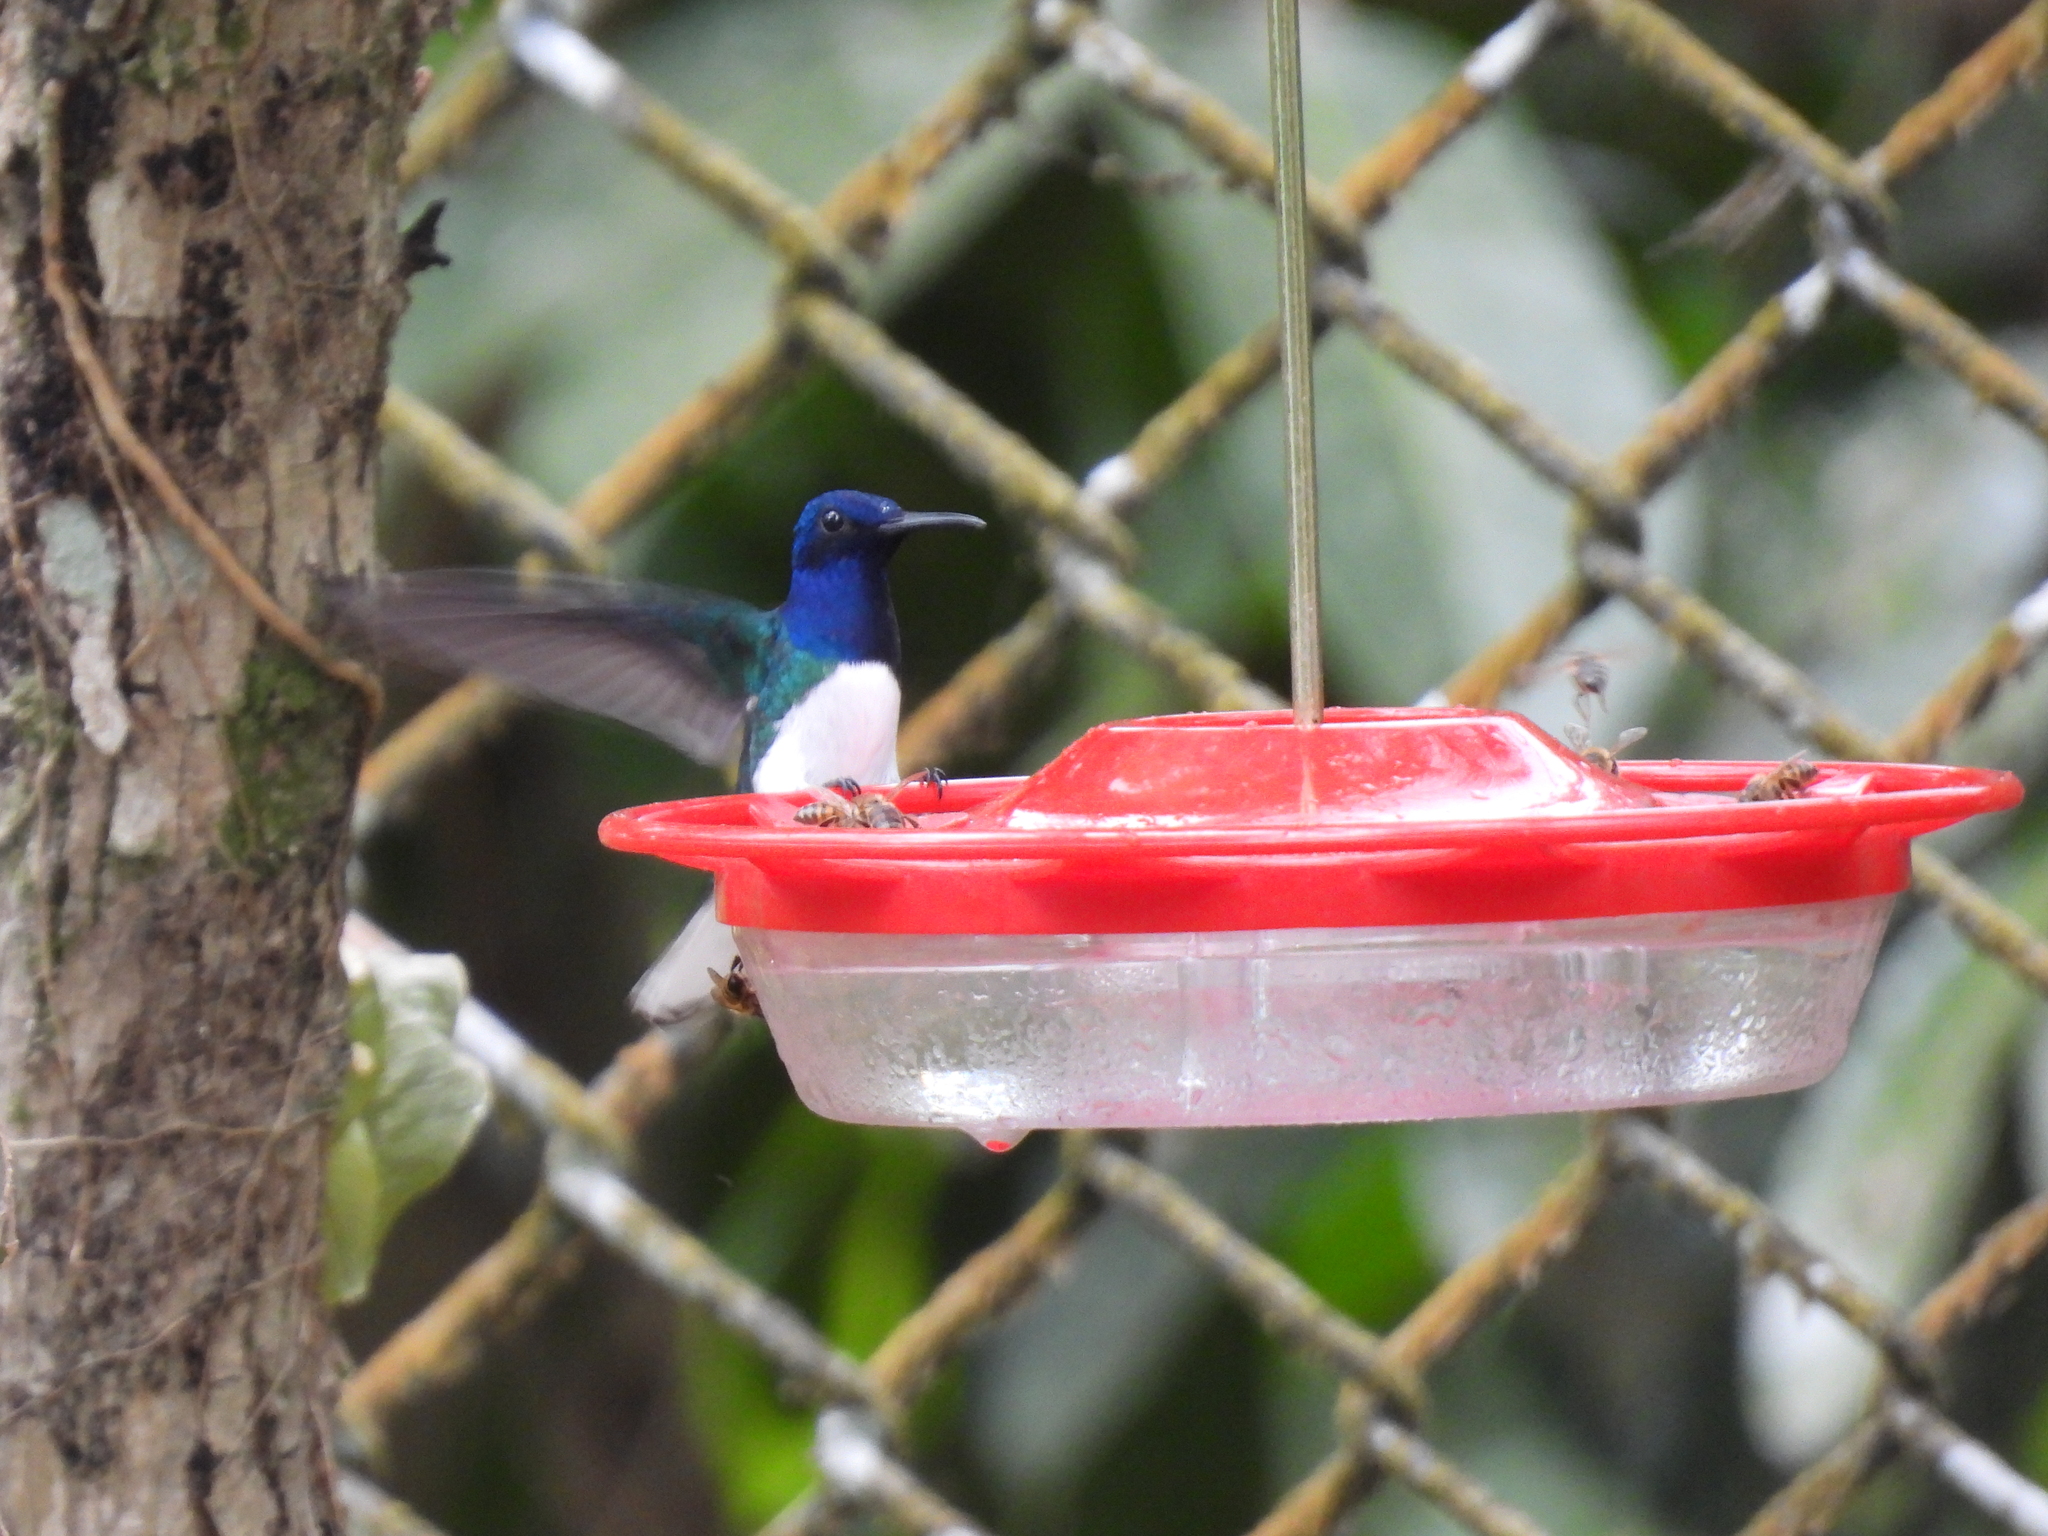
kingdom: Animalia
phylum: Chordata
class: Aves
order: Apodiformes
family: Trochilidae
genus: Florisuga
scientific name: Florisuga mellivora
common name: White-necked jacobin
